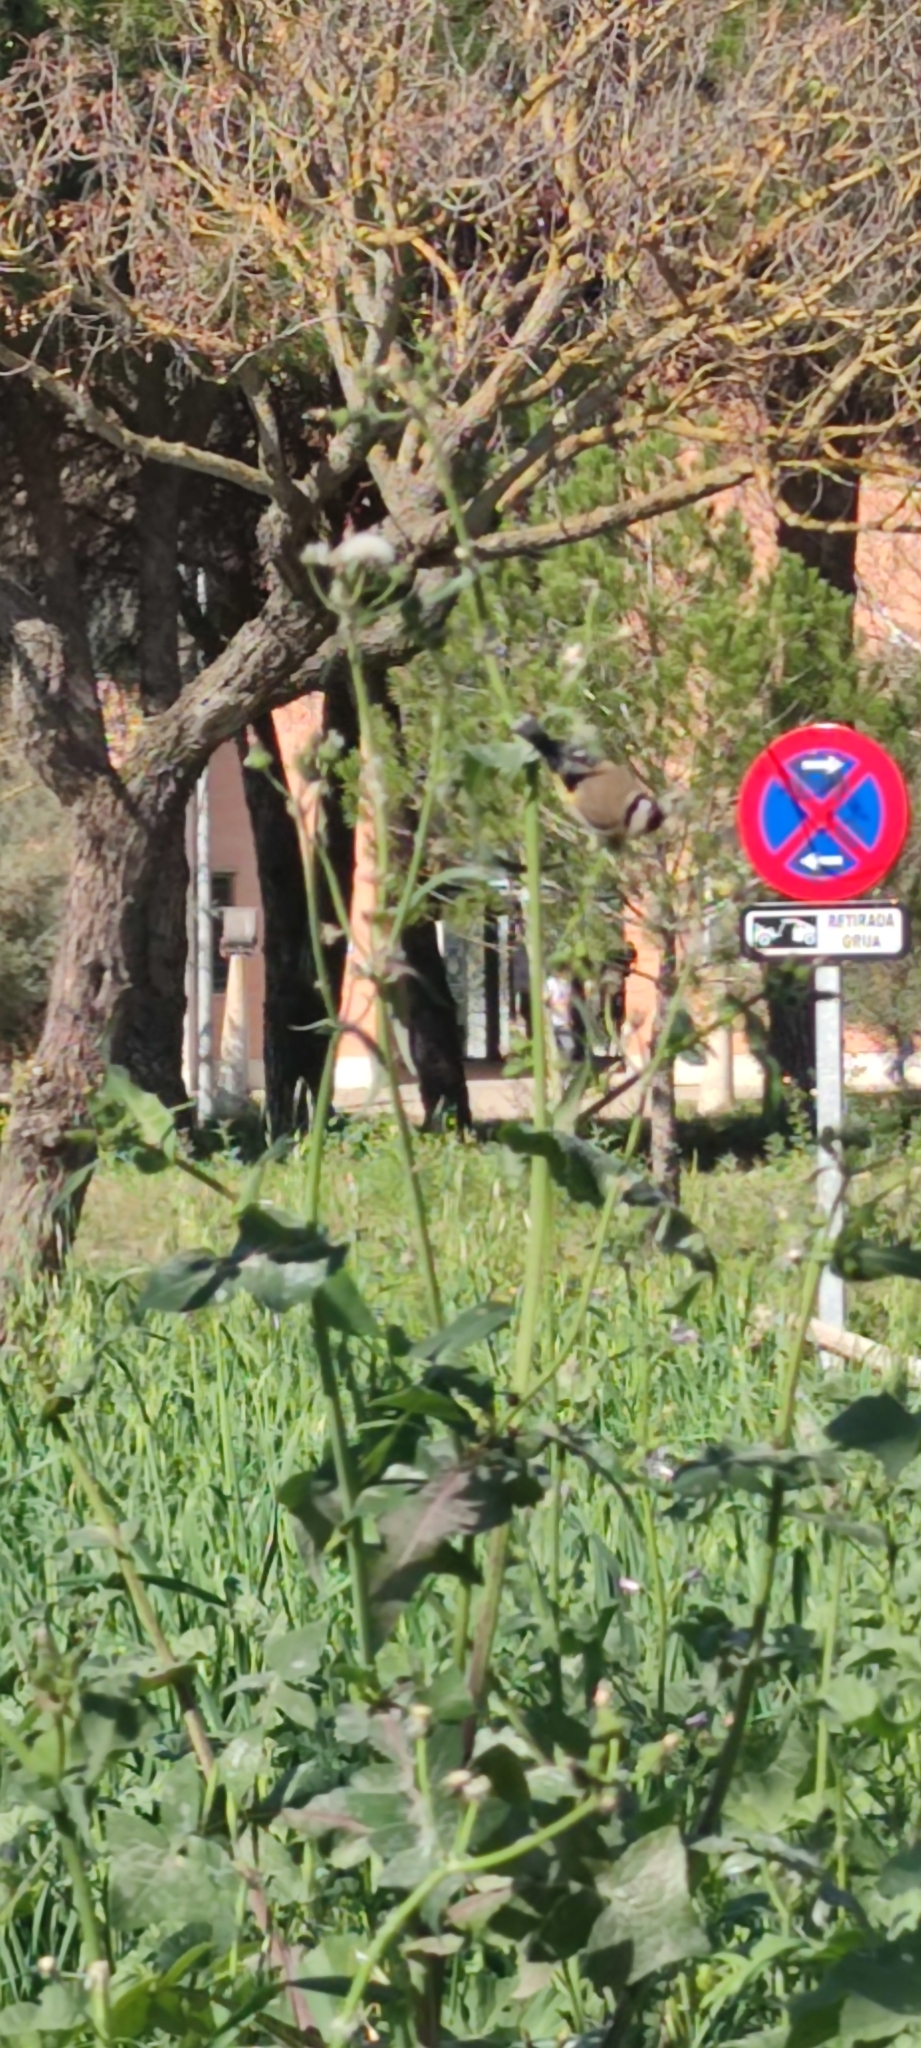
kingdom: Animalia
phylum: Chordata
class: Aves
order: Passeriformes
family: Fringillidae
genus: Carduelis
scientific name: Carduelis carduelis
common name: European goldfinch
